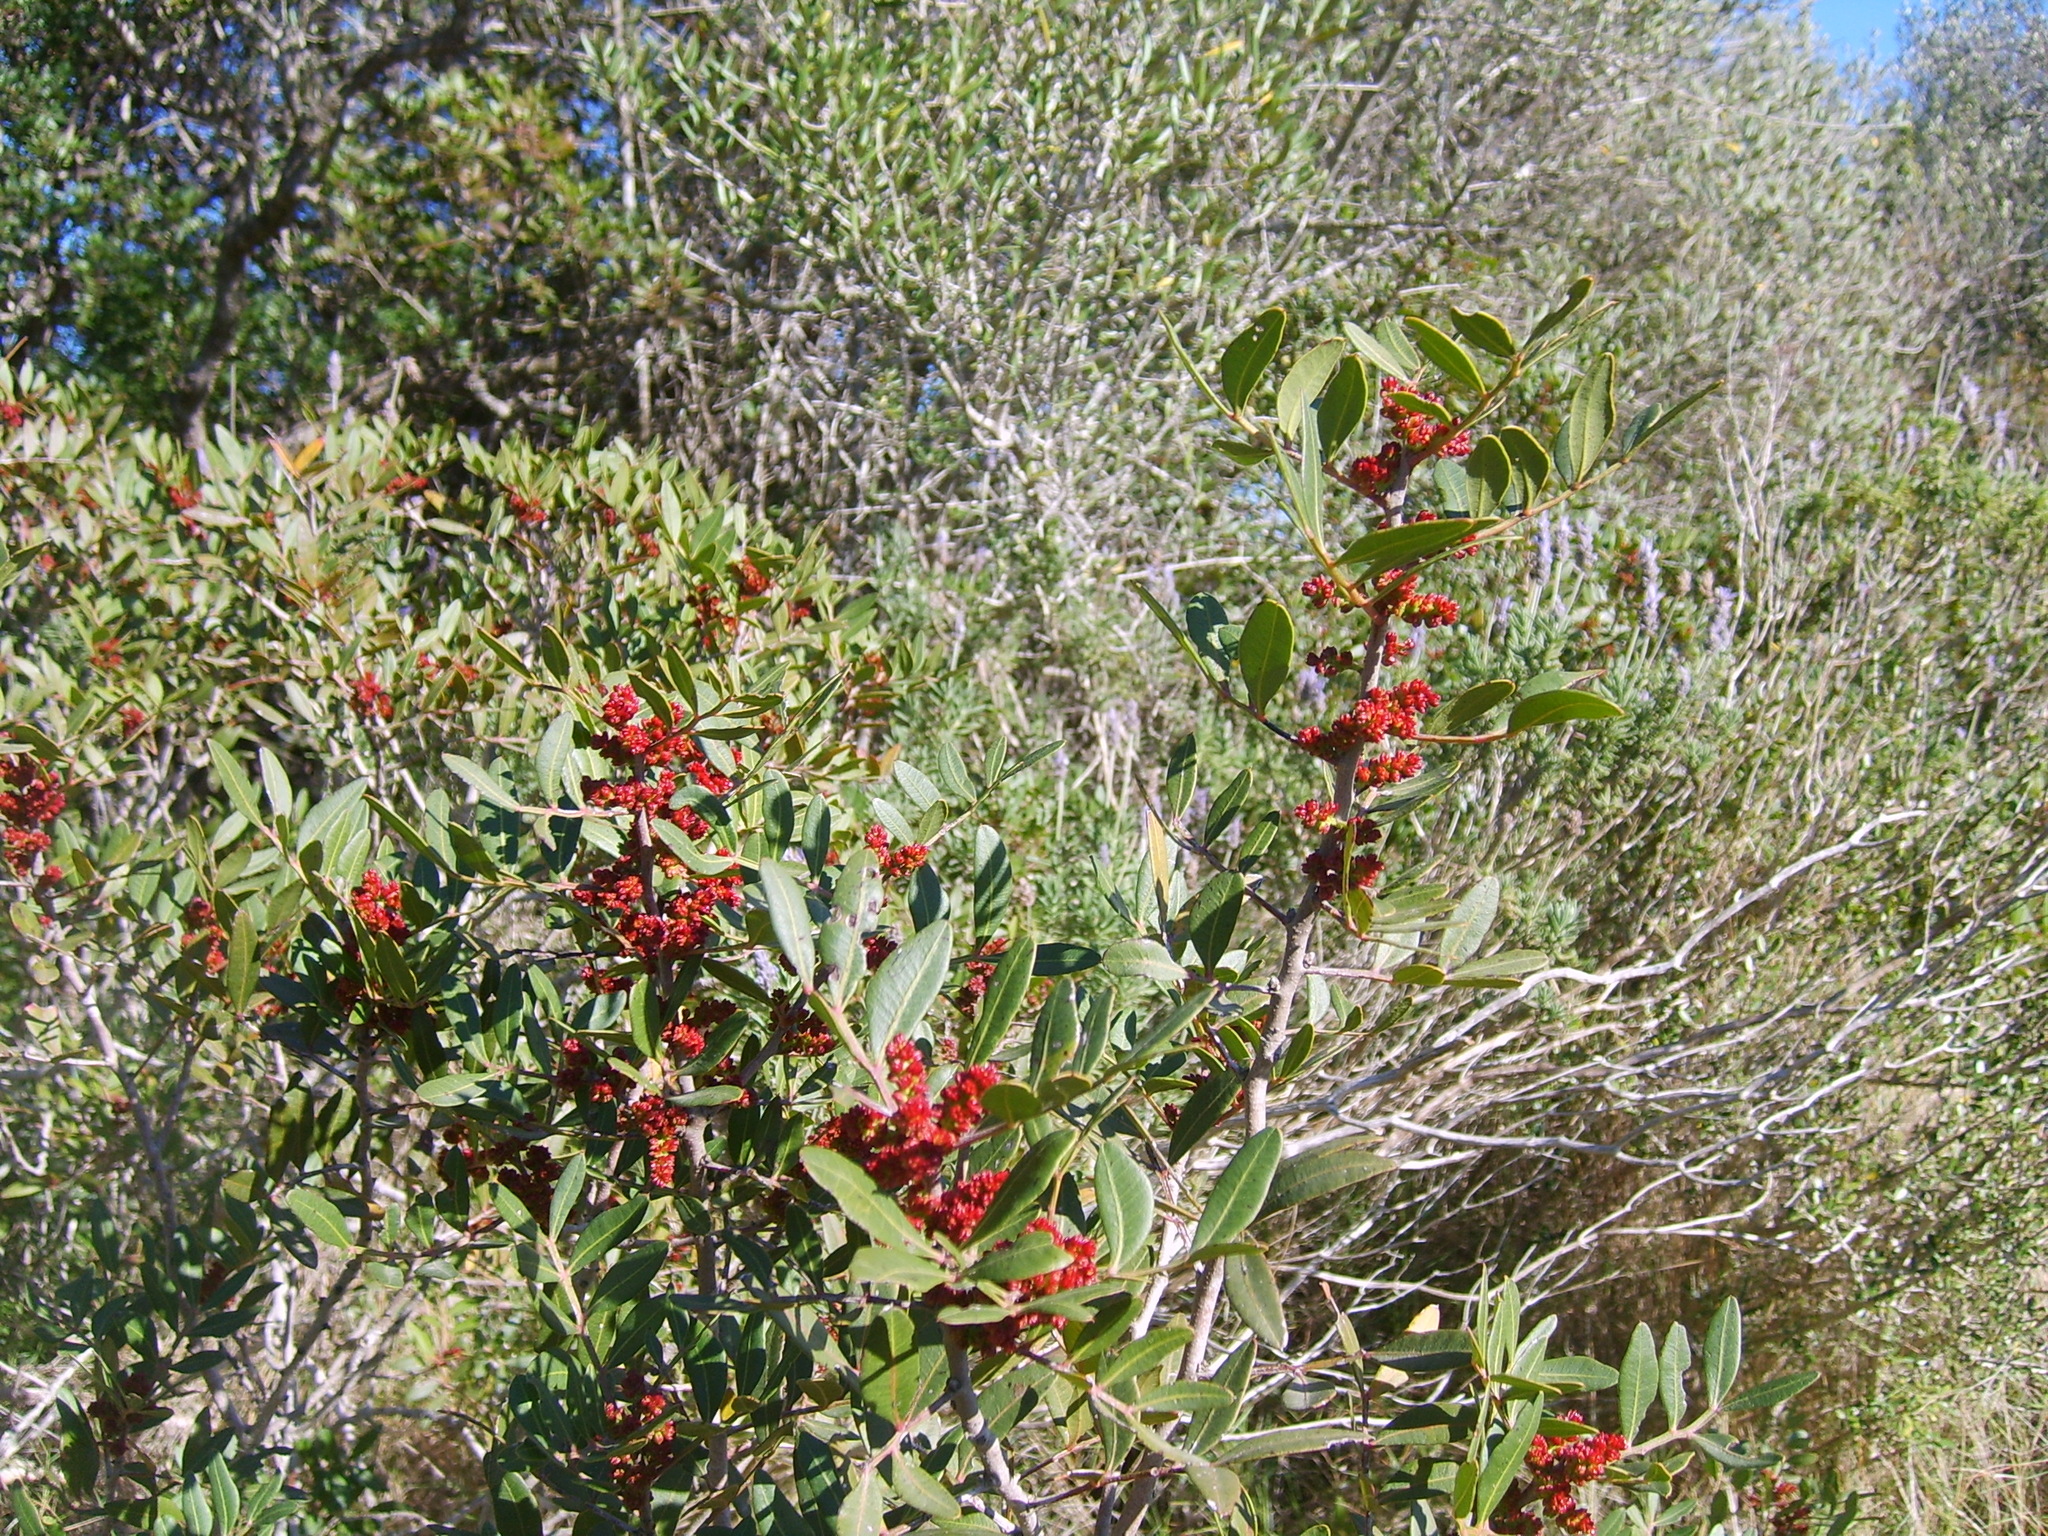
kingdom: Plantae
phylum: Tracheophyta
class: Magnoliopsida
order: Sapindales
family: Anacardiaceae
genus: Pistacia
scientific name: Pistacia lentiscus
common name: Lentisk
